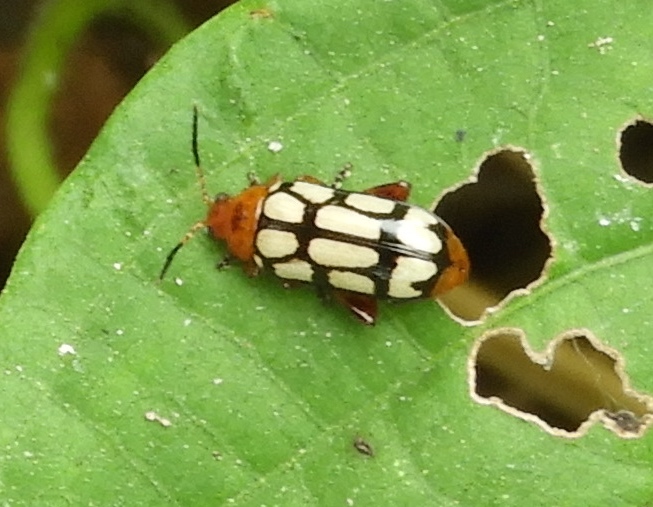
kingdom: Animalia
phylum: Arthropoda
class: Insecta
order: Coleoptera
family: Chrysomelidae
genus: Disonycha
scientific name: Disonycha
